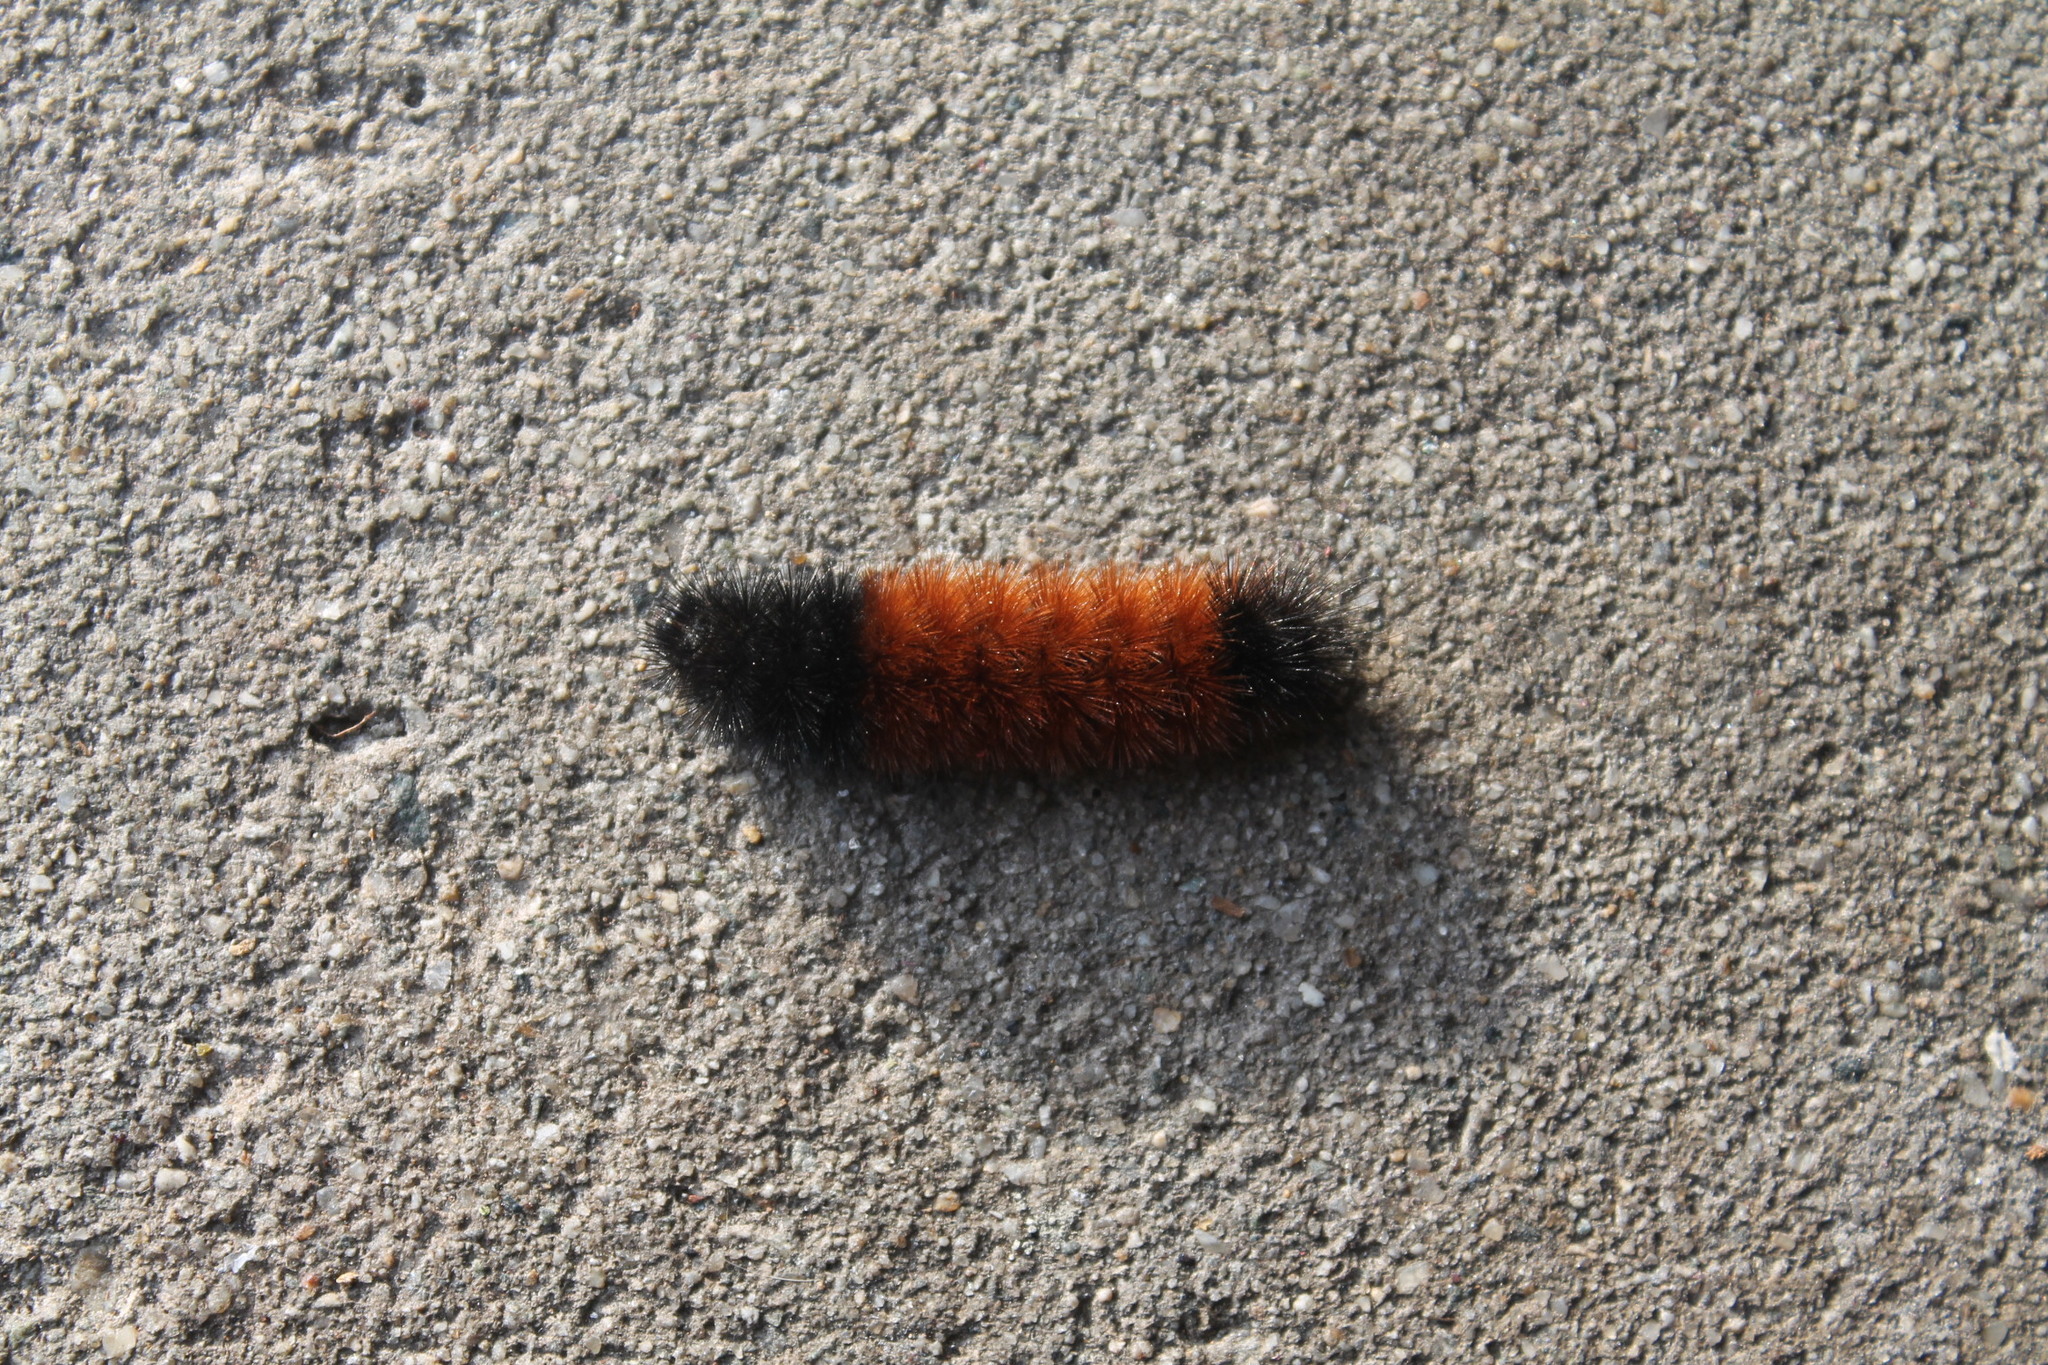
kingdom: Animalia
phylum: Arthropoda
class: Insecta
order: Lepidoptera
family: Erebidae
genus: Pyrrharctia
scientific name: Pyrrharctia isabella
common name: Isabella tiger moth
